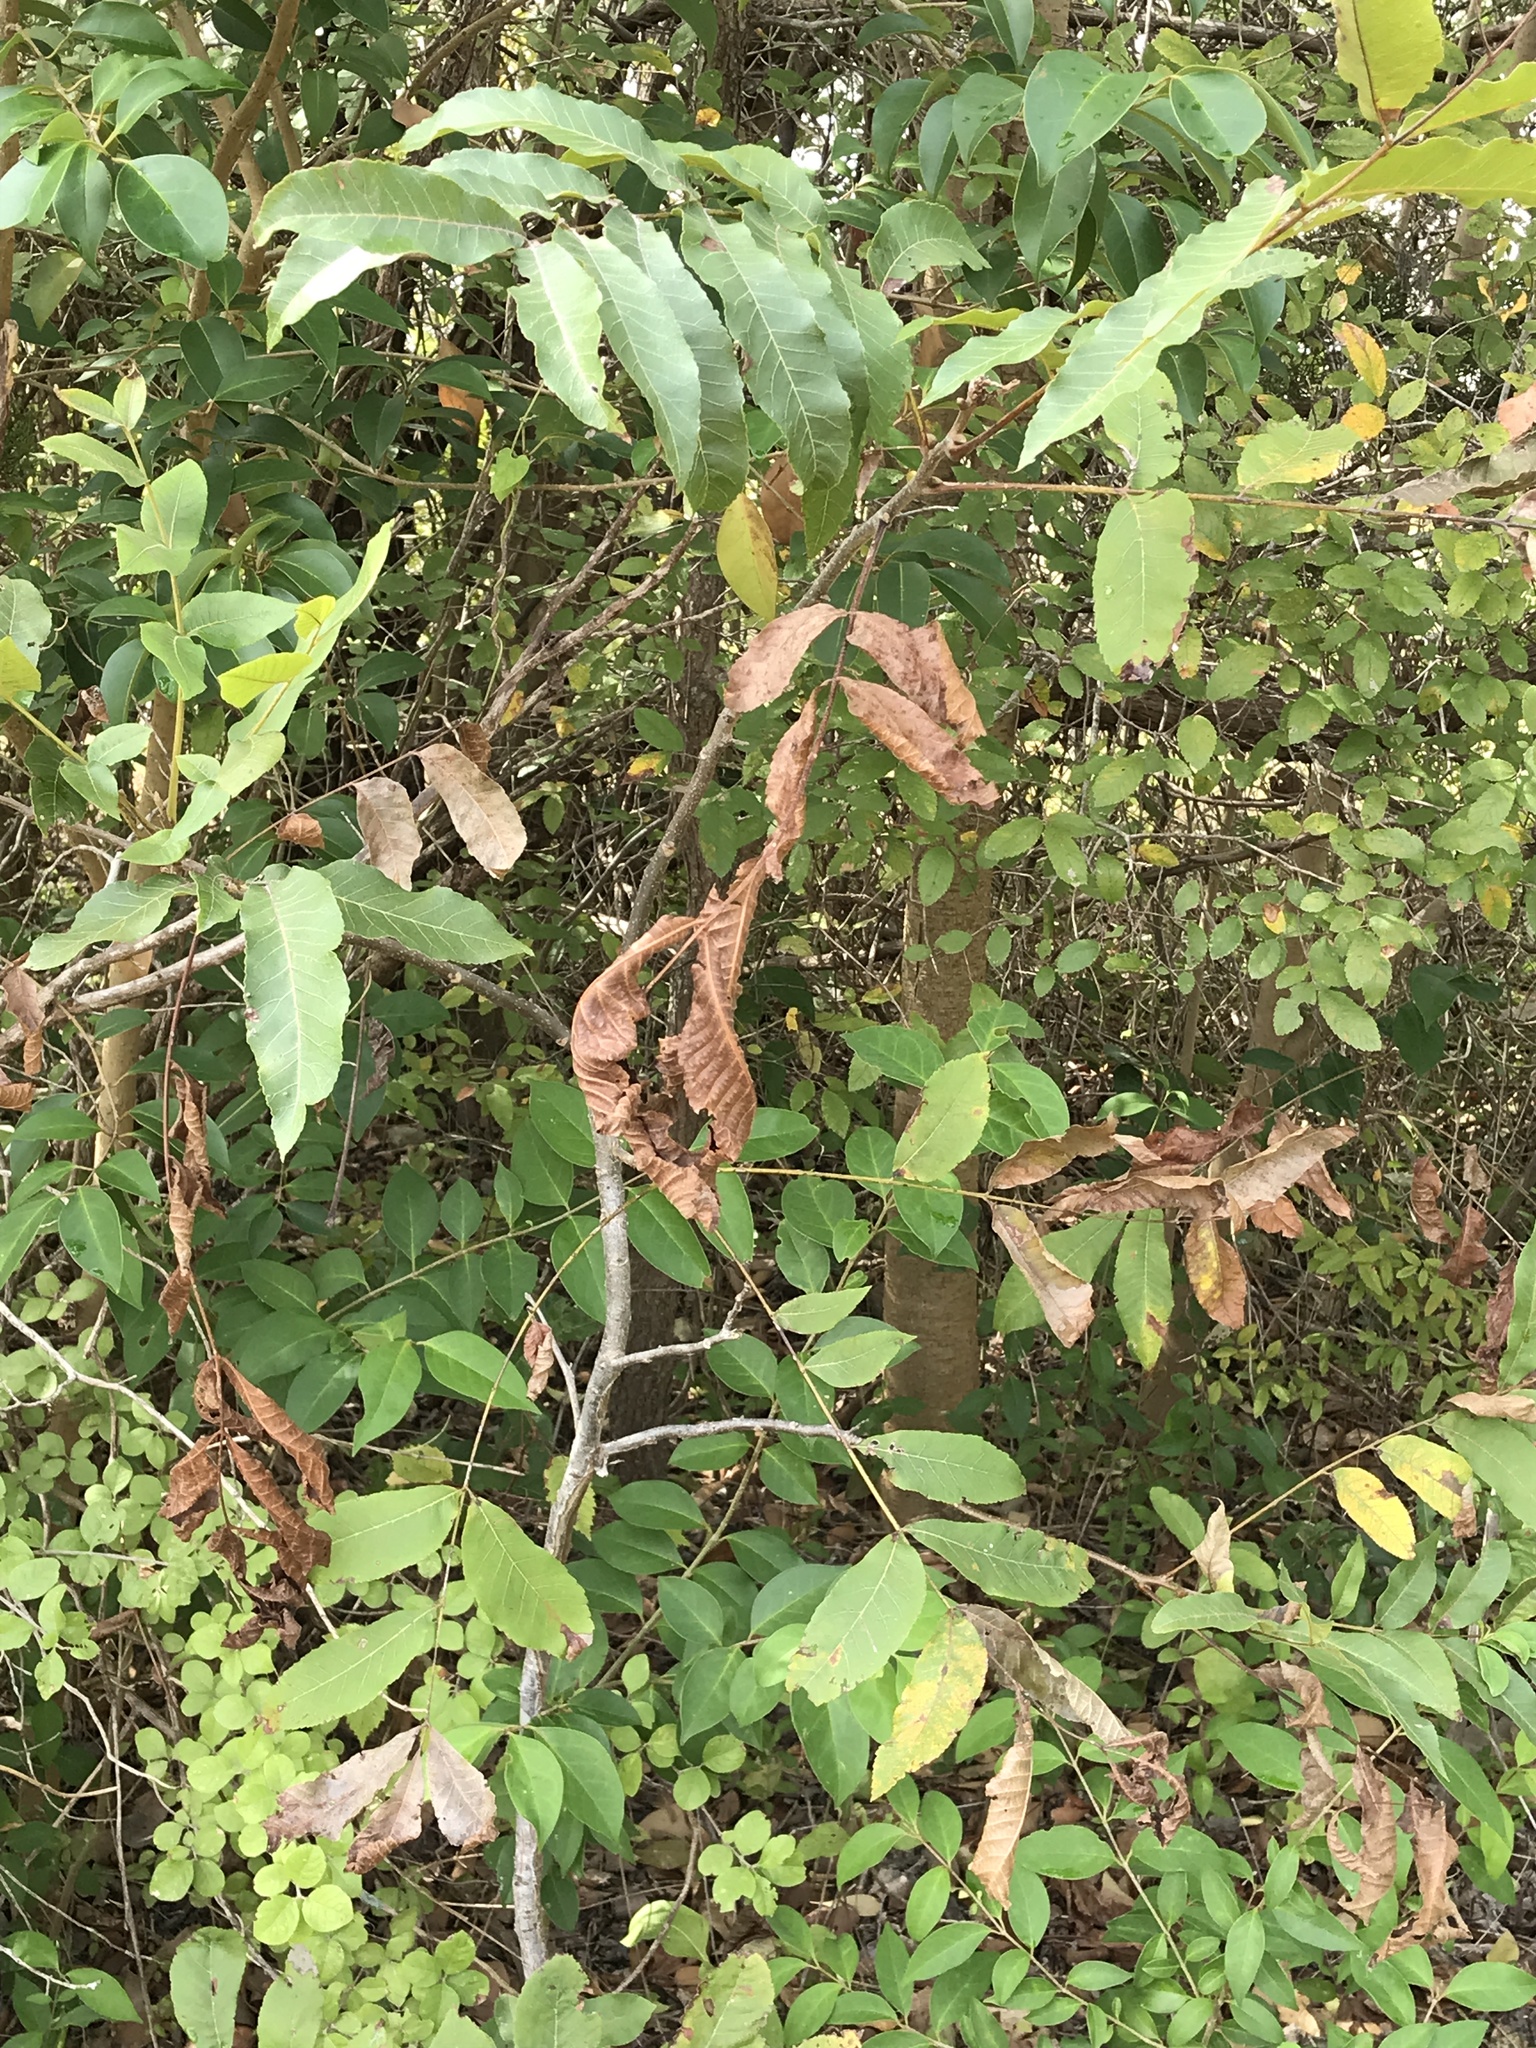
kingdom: Plantae
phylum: Tracheophyta
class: Magnoliopsida
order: Fagales
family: Juglandaceae
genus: Carya
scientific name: Carya illinoinensis
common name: Pecan
